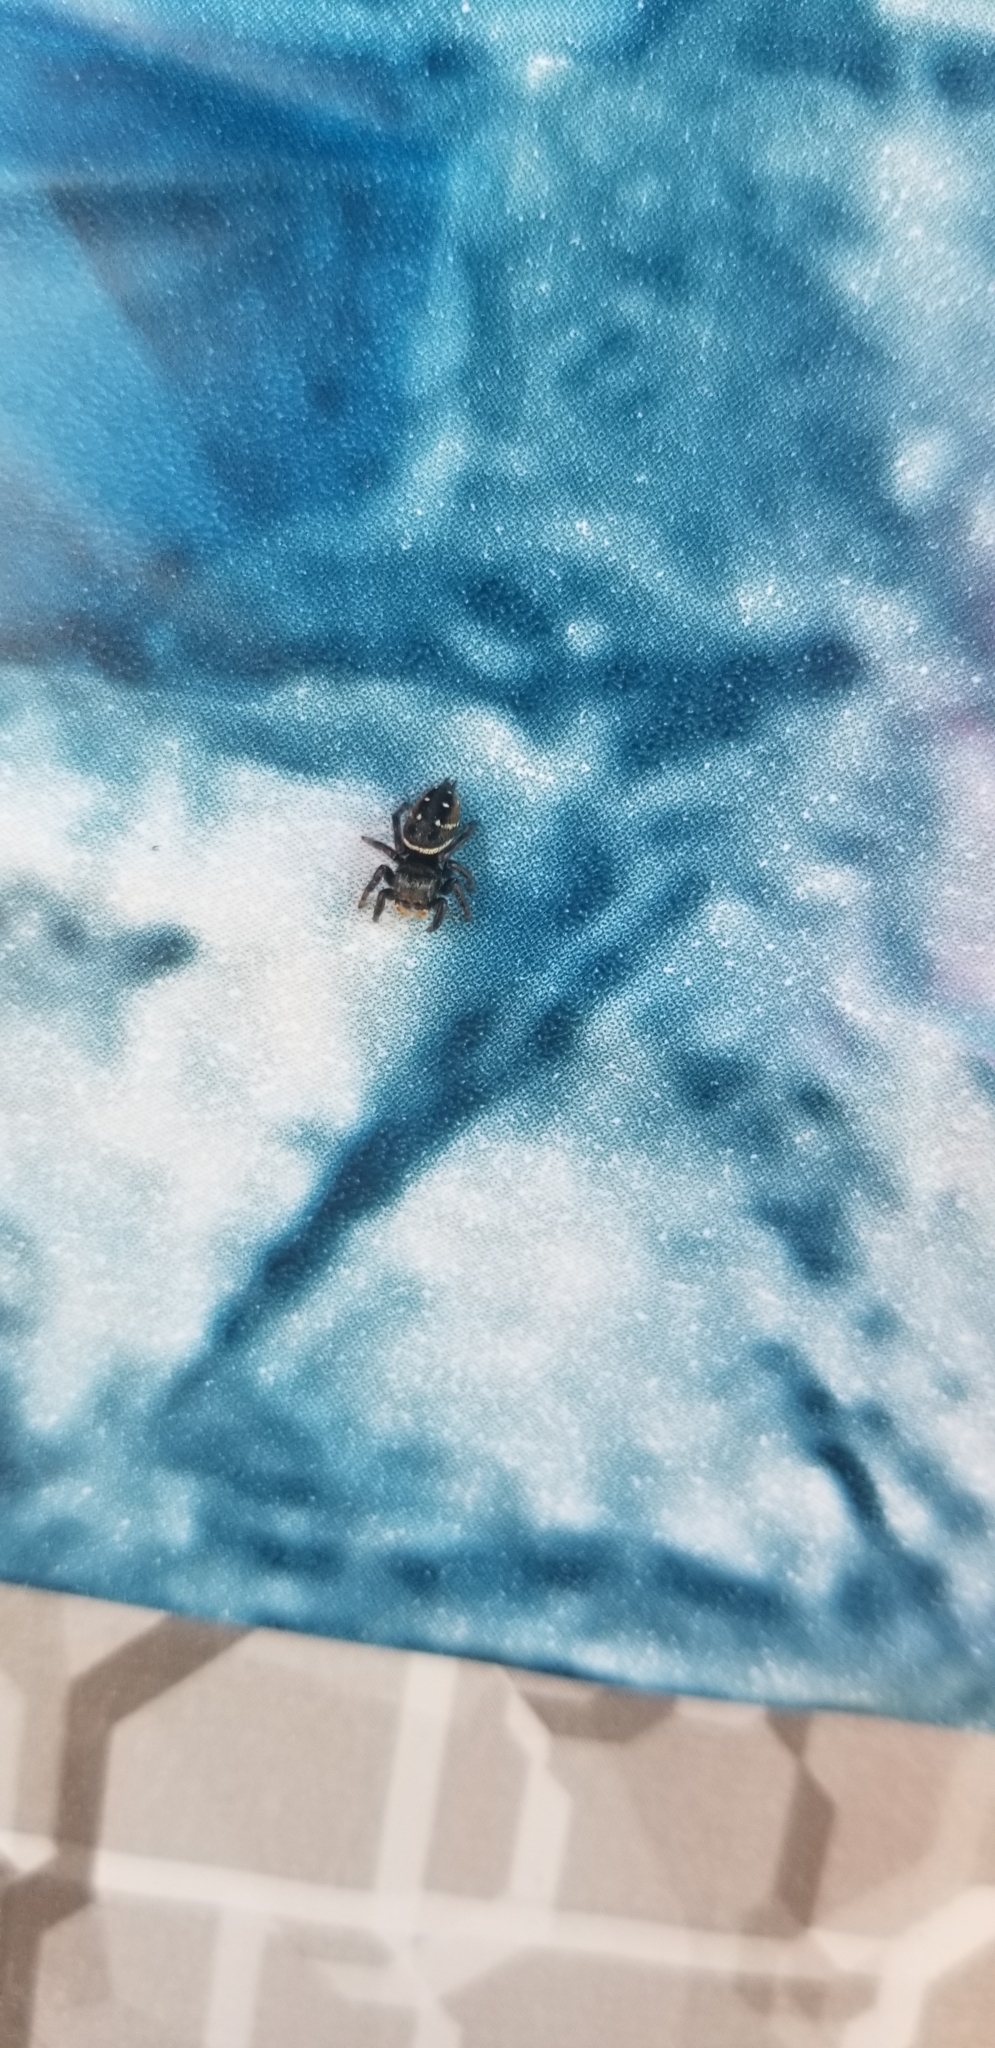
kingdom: Animalia
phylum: Arthropoda
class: Arachnida
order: Araneae
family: Salticidae
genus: Phidippus
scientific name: Phidippus clarus
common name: Brilliant jumping spider
